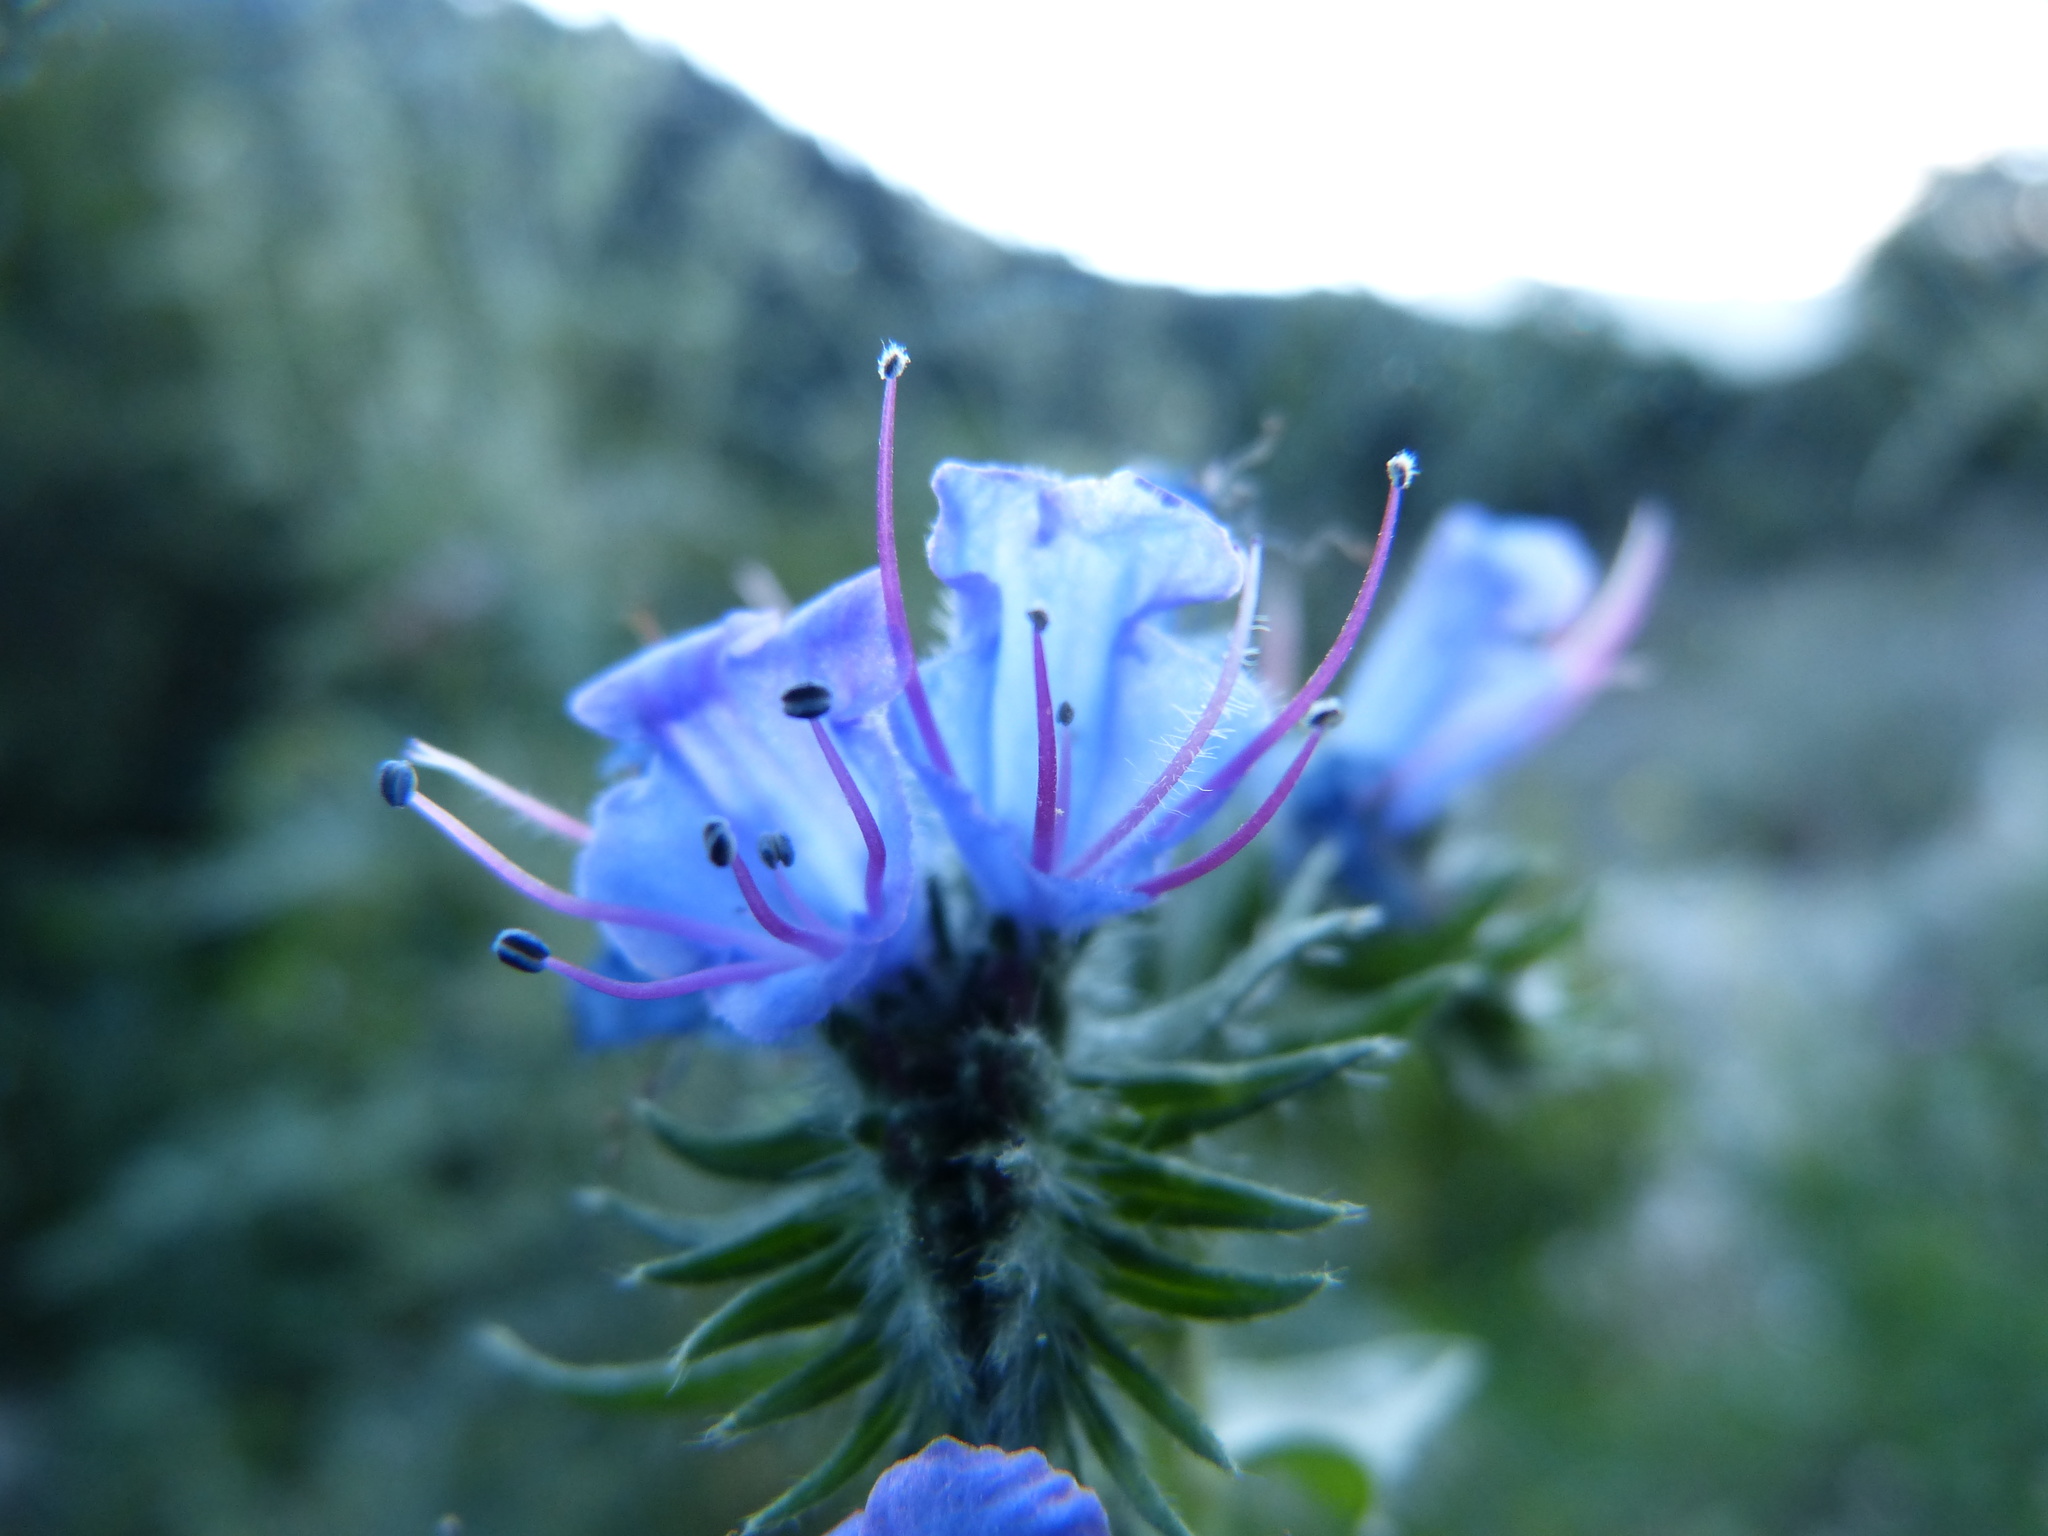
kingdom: Plantae
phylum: Tracheophyta
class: Magnoliopsida
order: Boraginales
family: Boraginaceae
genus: Echium
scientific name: Echium vulgare
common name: Common viper's bugloss
